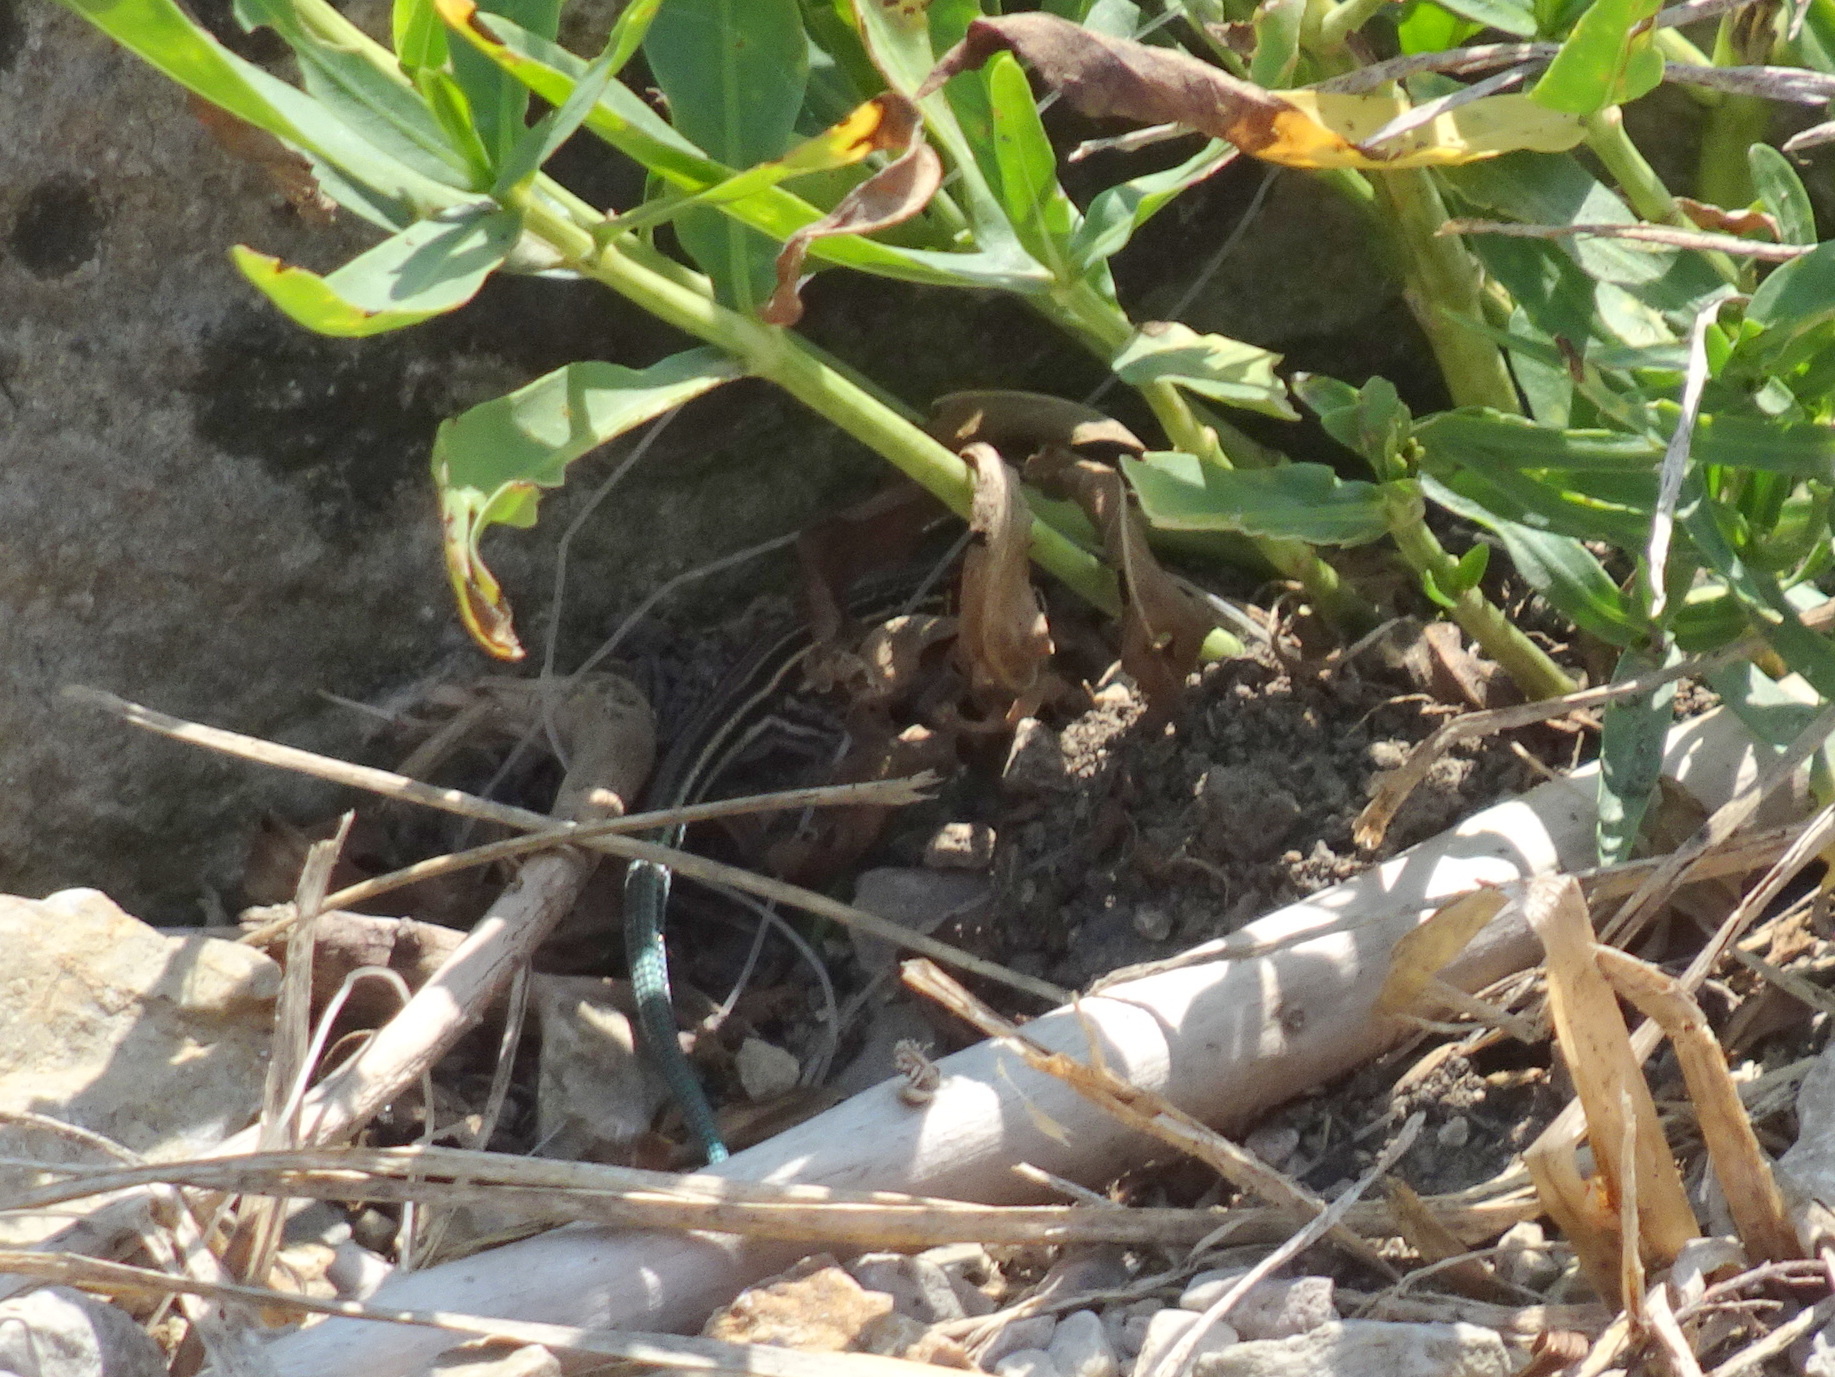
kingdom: Animalia
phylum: Chordata
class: Squamata
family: Teiidae
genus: Aspidoscelis
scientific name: Aspidoscelis sexlineatus
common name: Six-lined racerunner
